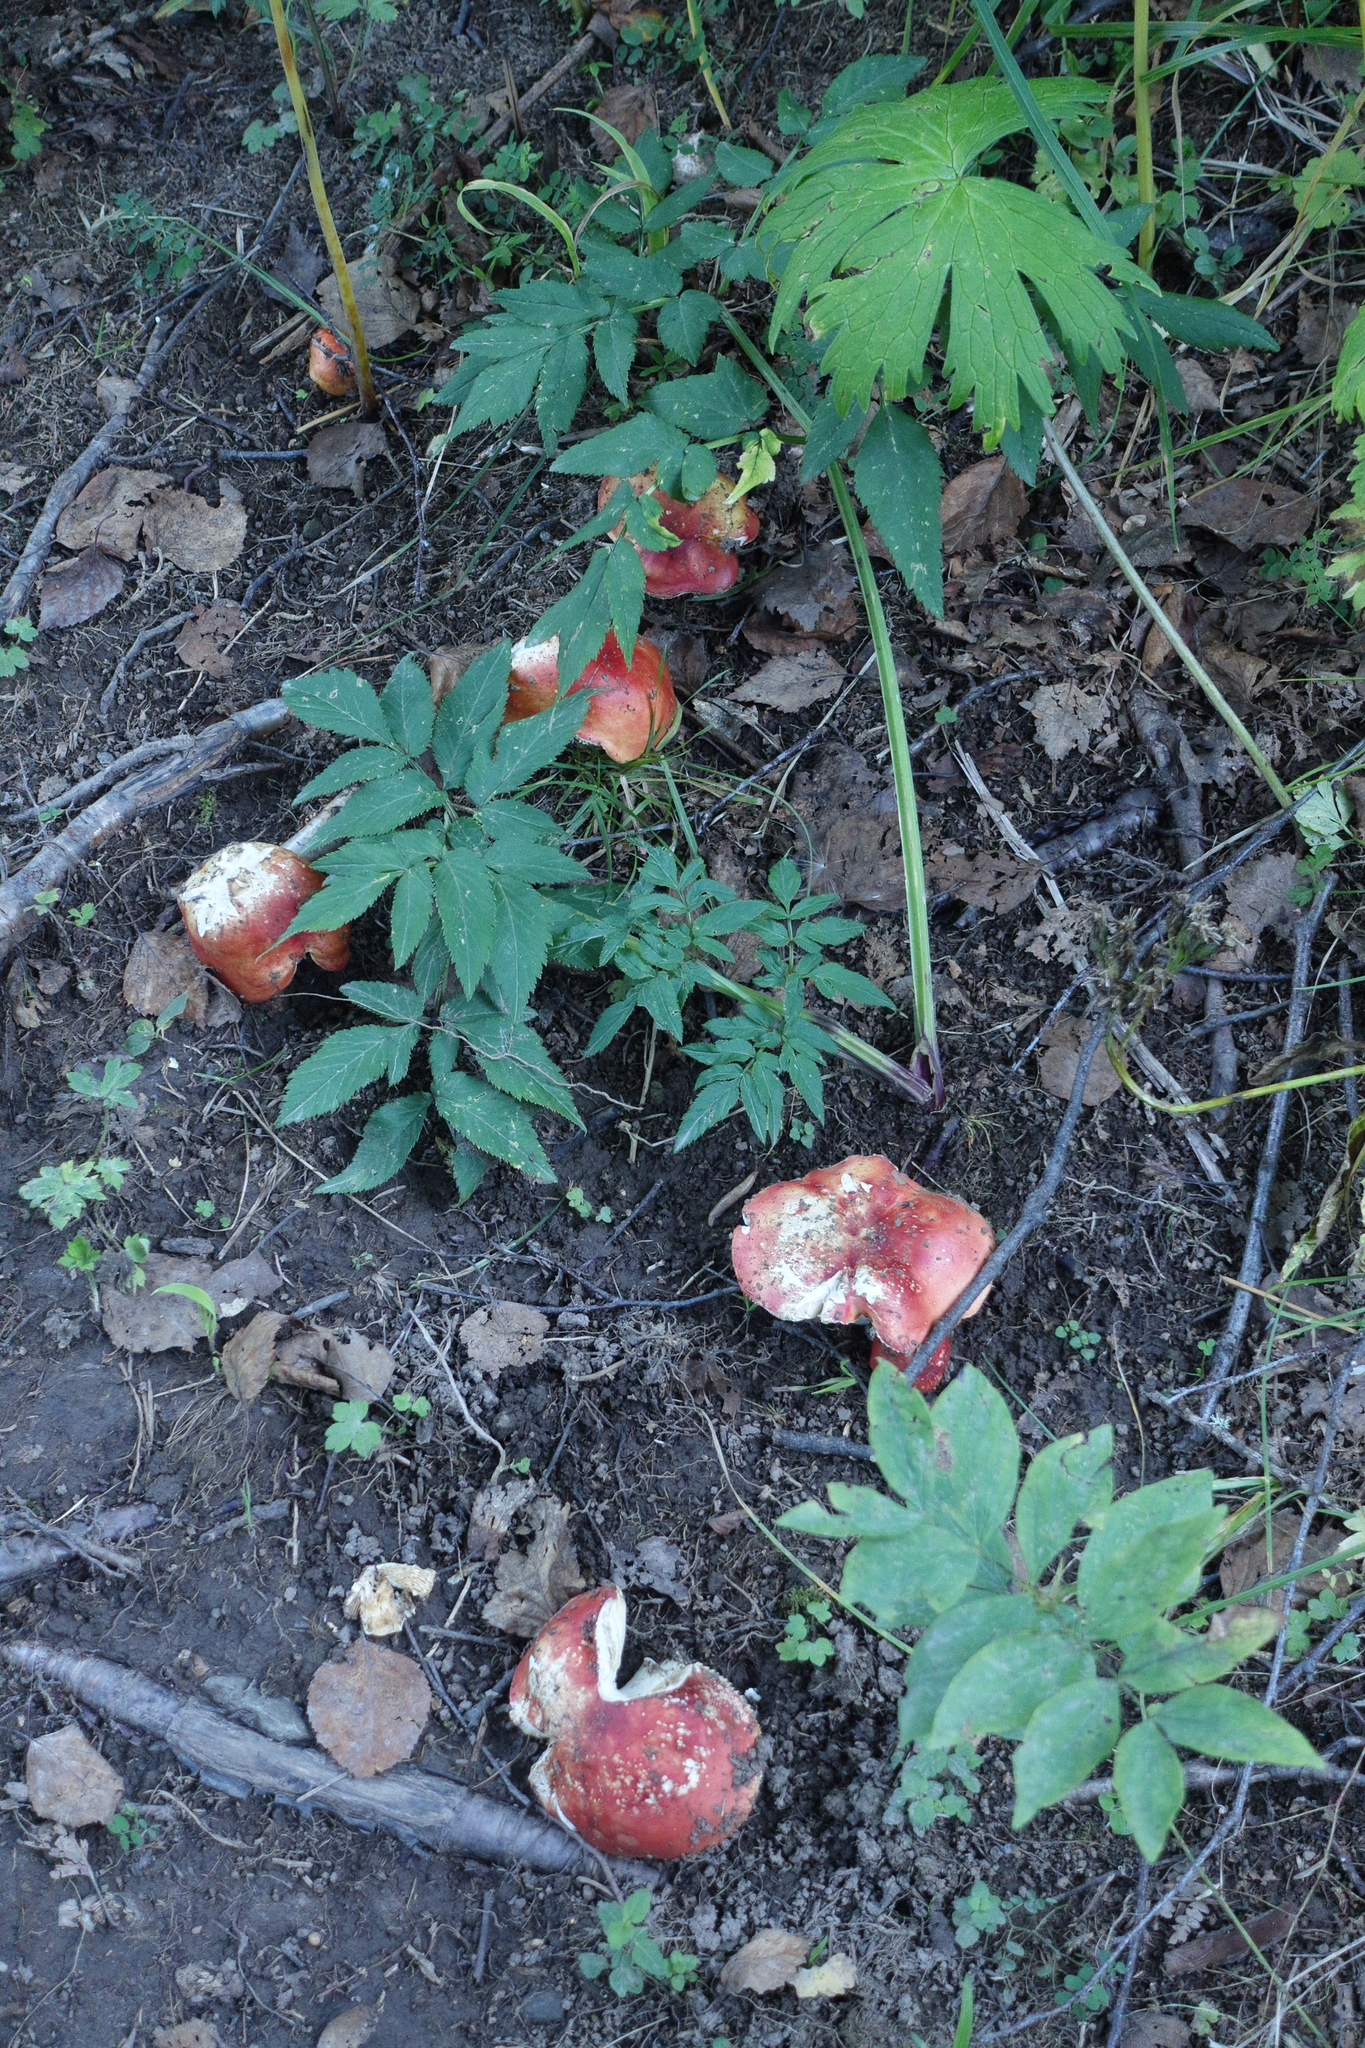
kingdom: Plantae
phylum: Tracheophyta
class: Magnoliopsida
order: Fabales
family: Fabaceae
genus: Lathyrus
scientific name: Lathyrus vernus
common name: Spring pea
